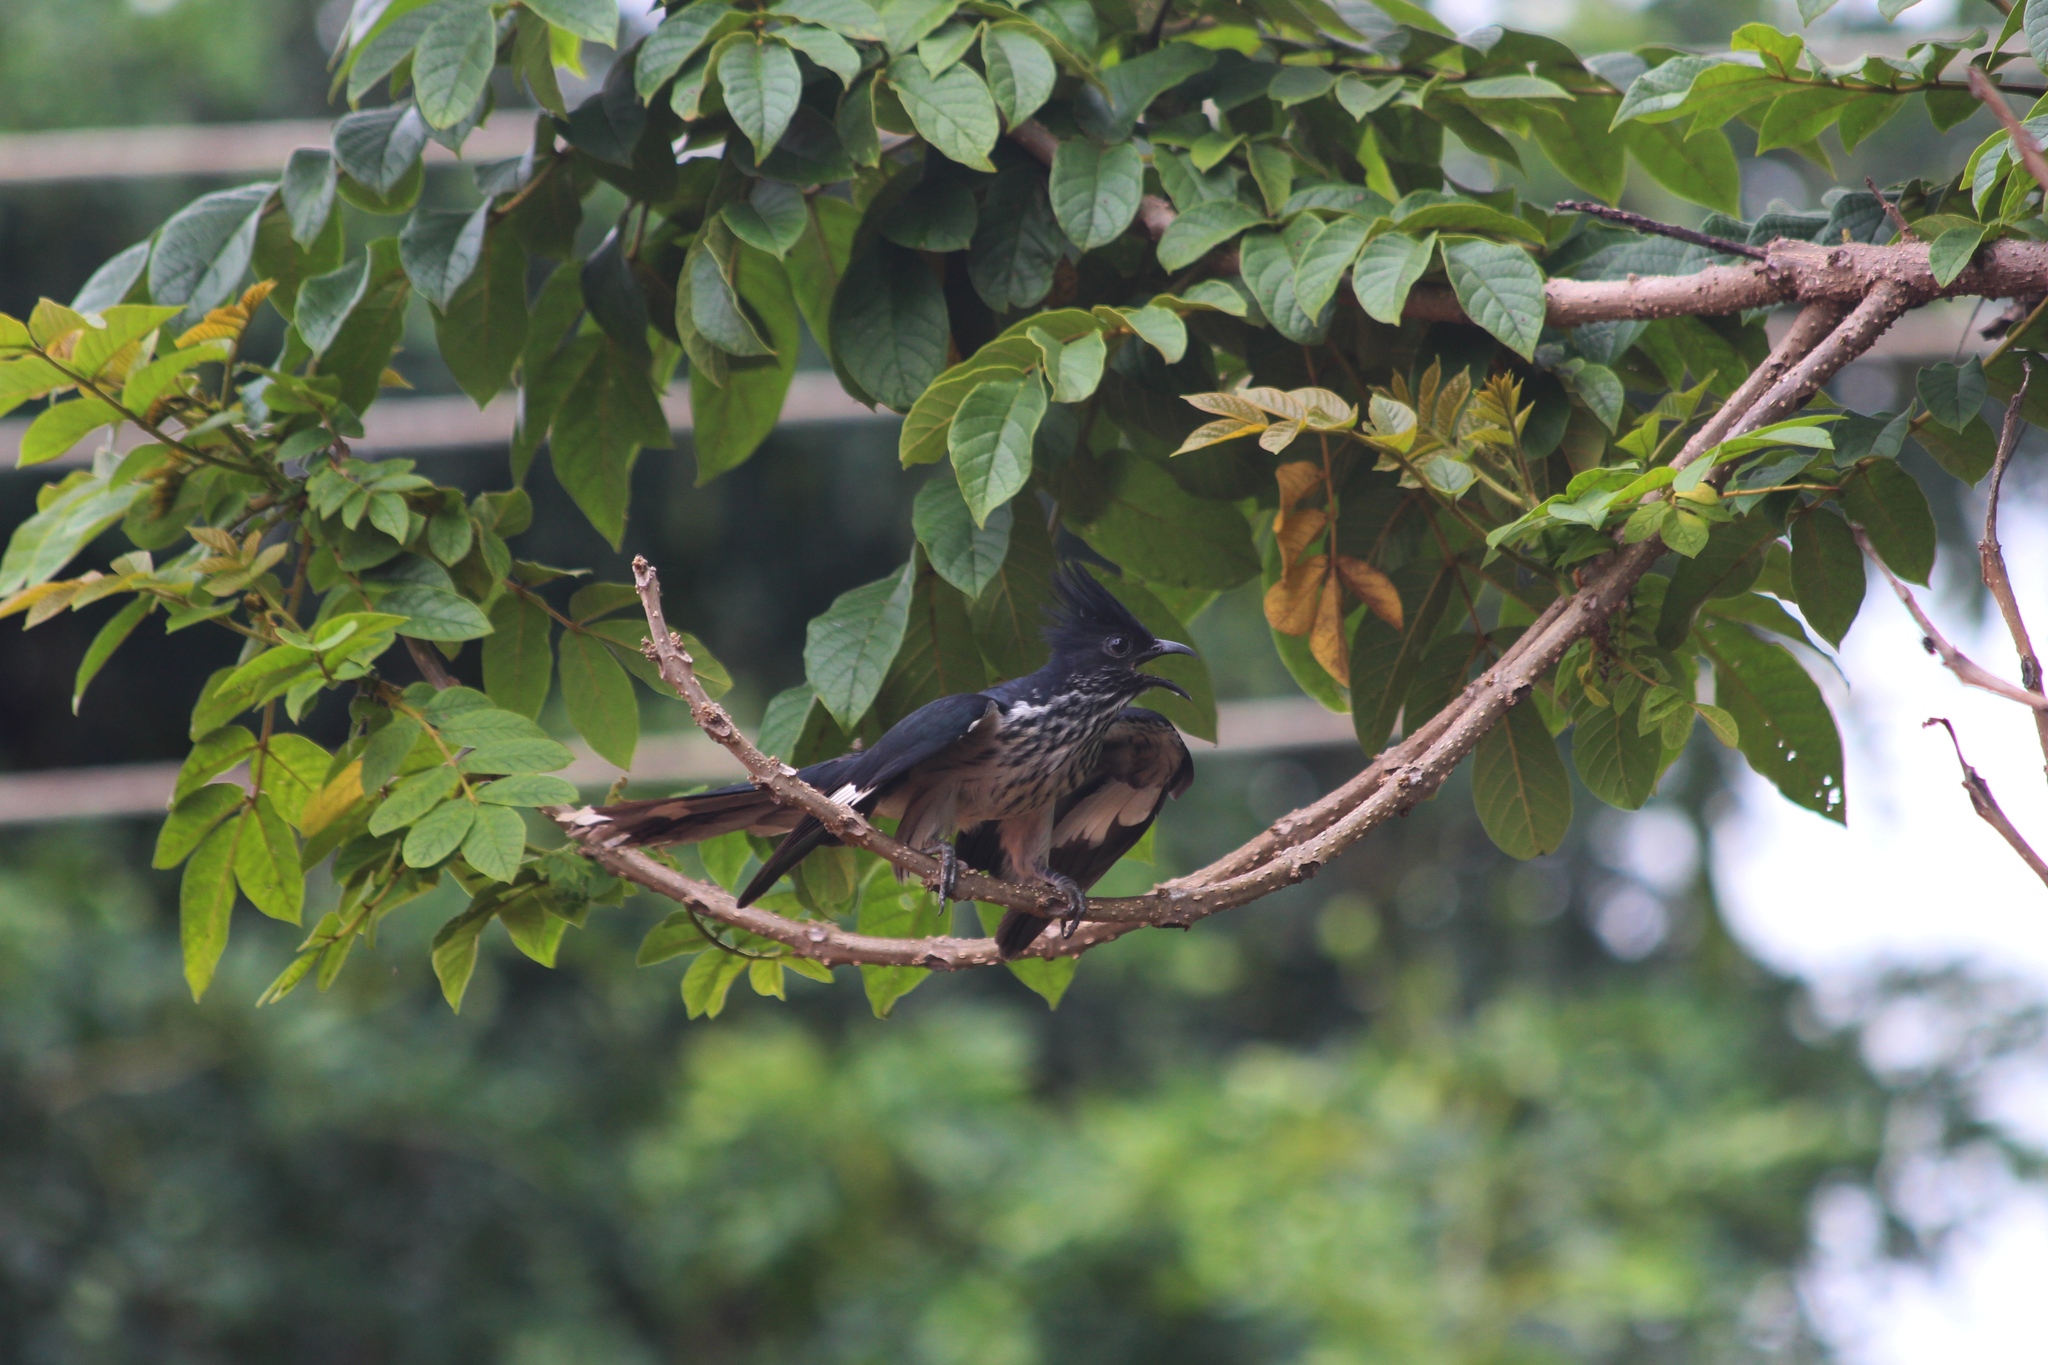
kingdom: Animalia
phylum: Chordata
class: Aves
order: Cuculiformes
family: Cuculidae
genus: Clamator
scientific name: Clamator levaillantii
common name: Levaillant's cuckoo
